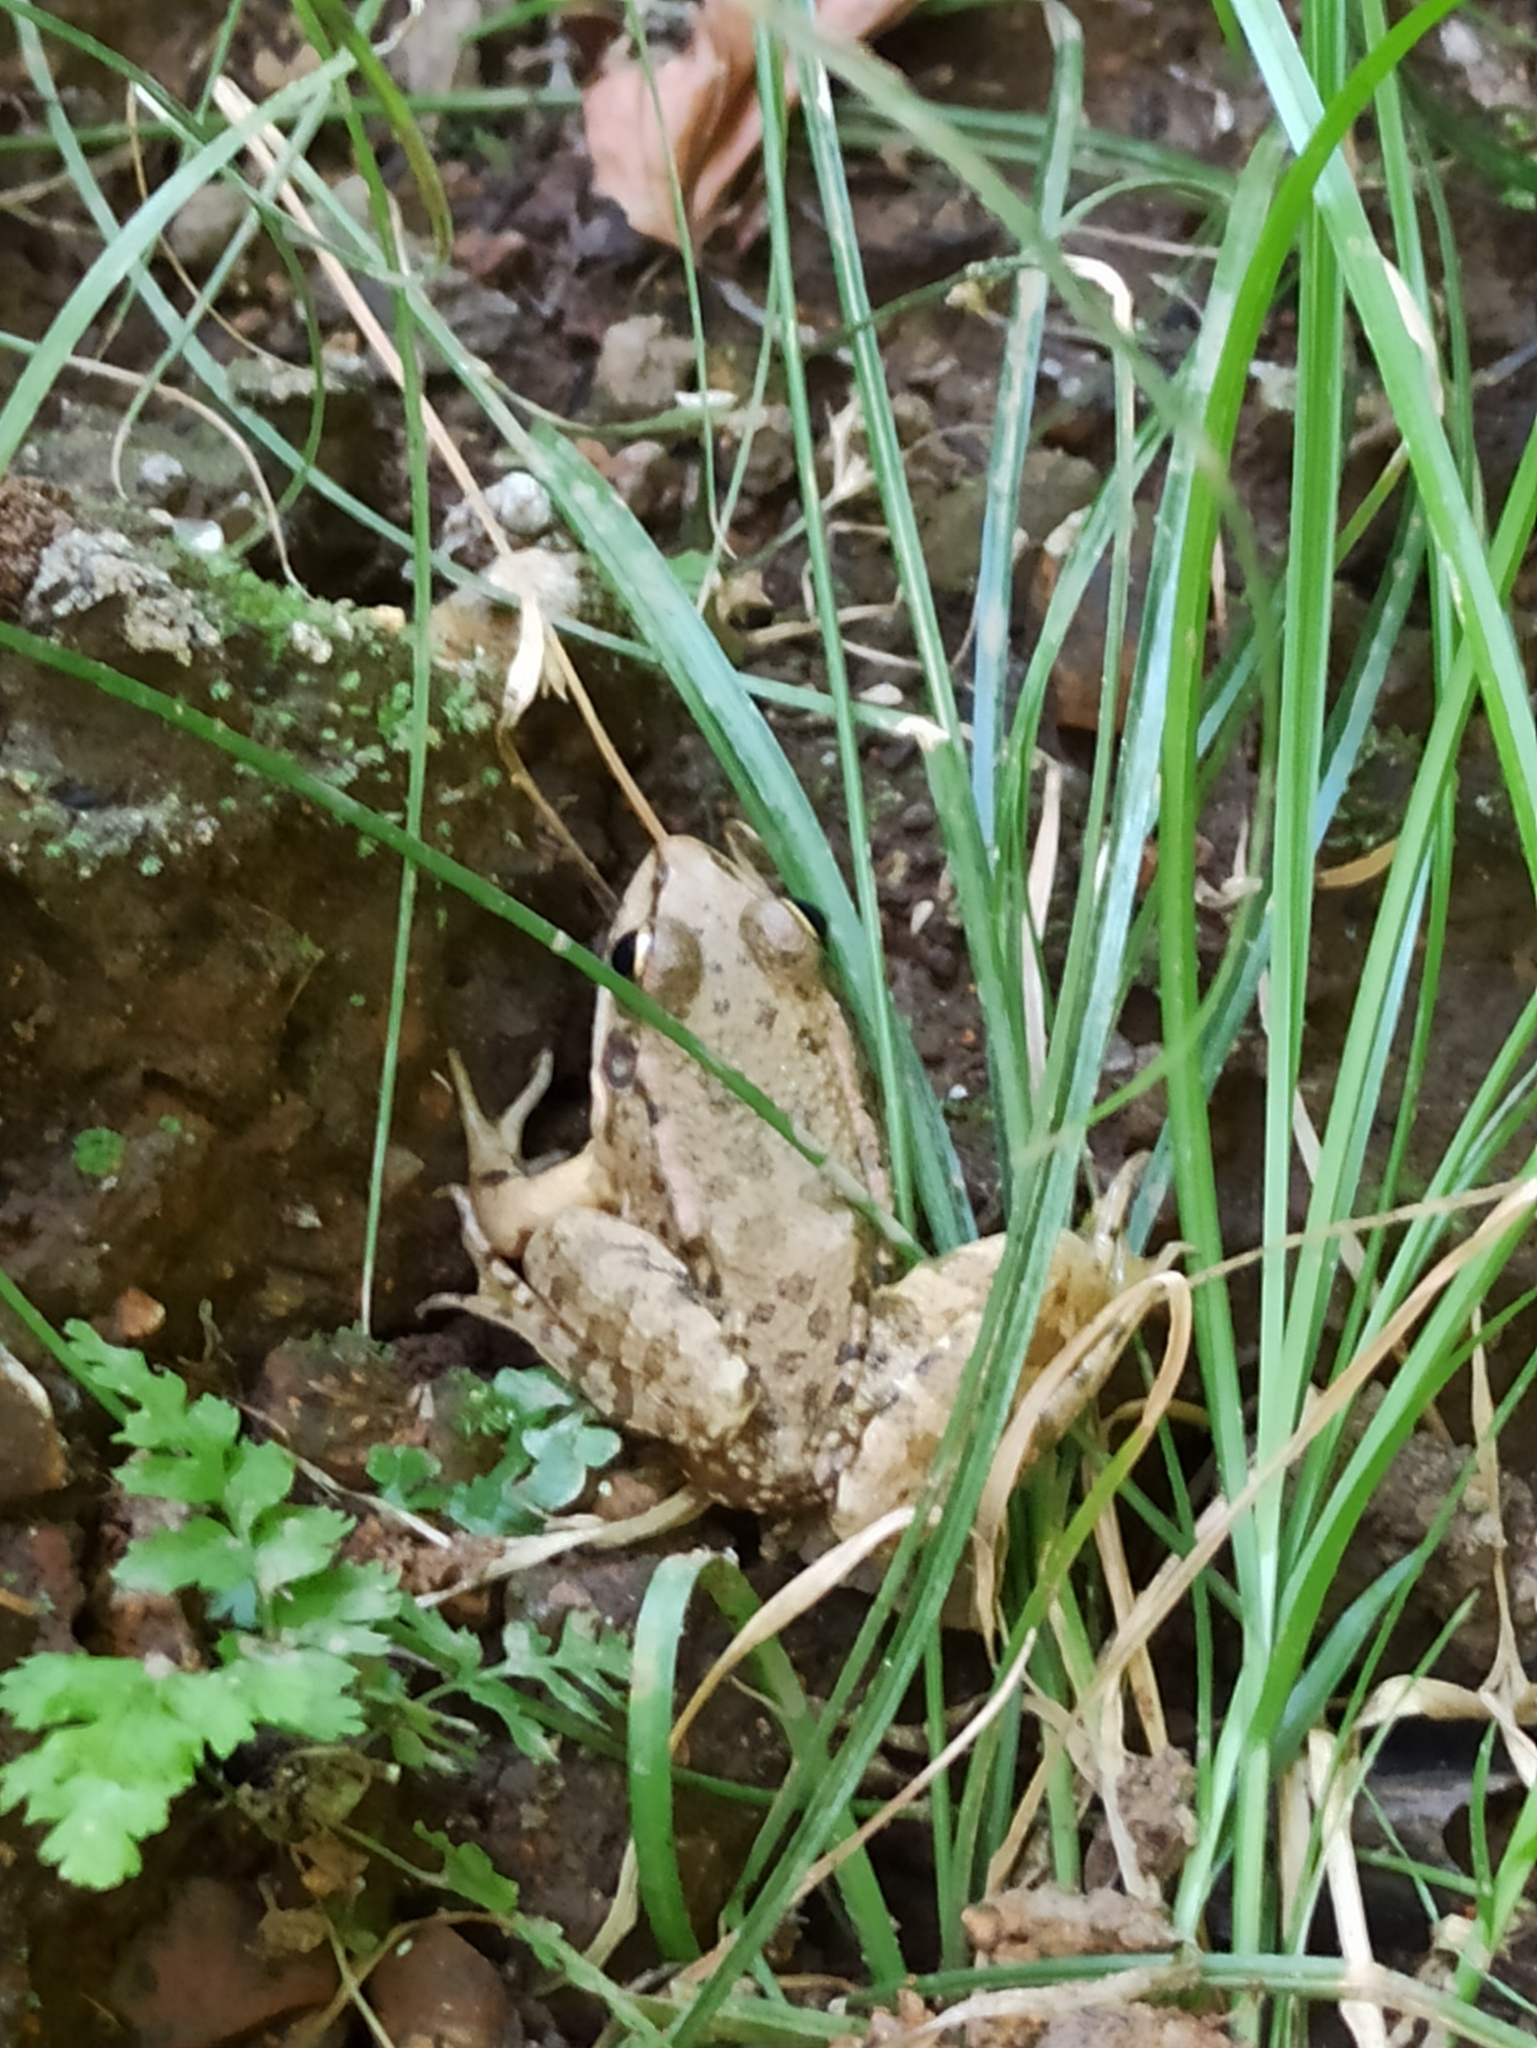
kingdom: Animalia
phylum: Chordata
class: Amphibia
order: Anura
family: Ranidae
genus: Pelophylax
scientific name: Pelophylax ridibundus
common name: Marsh frog
